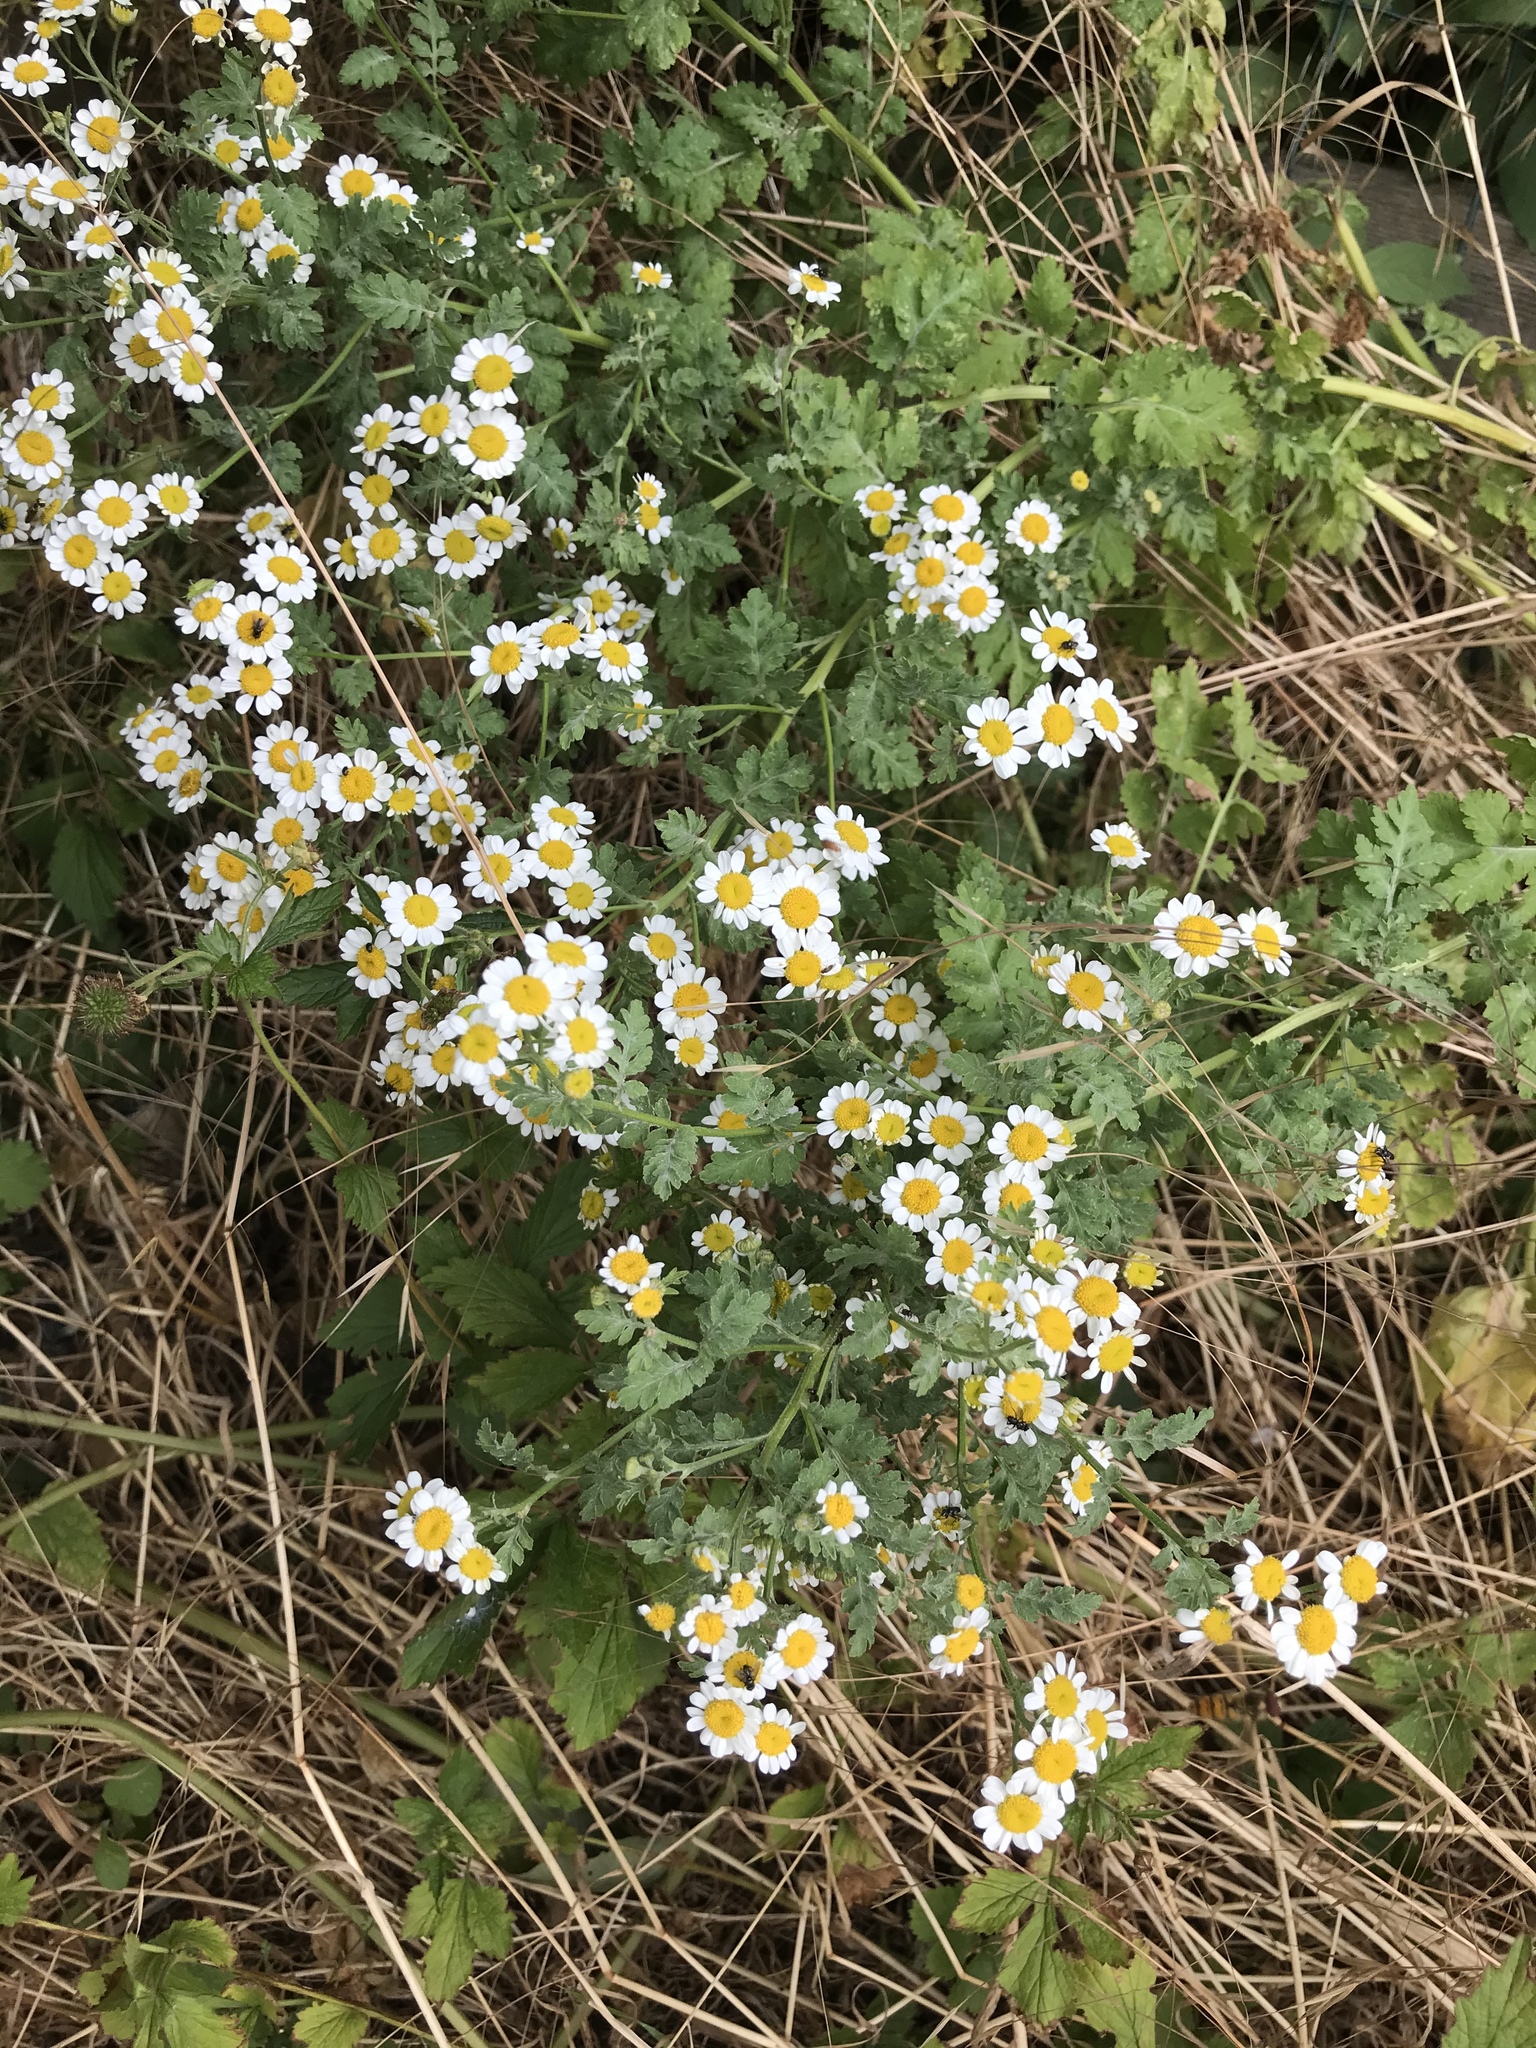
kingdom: Plantae
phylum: Tracheophyta
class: Magnoliopsida
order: Asterales
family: Asteraceae
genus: Tanacetum
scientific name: Tanacetum parthenium
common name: Feverfew
